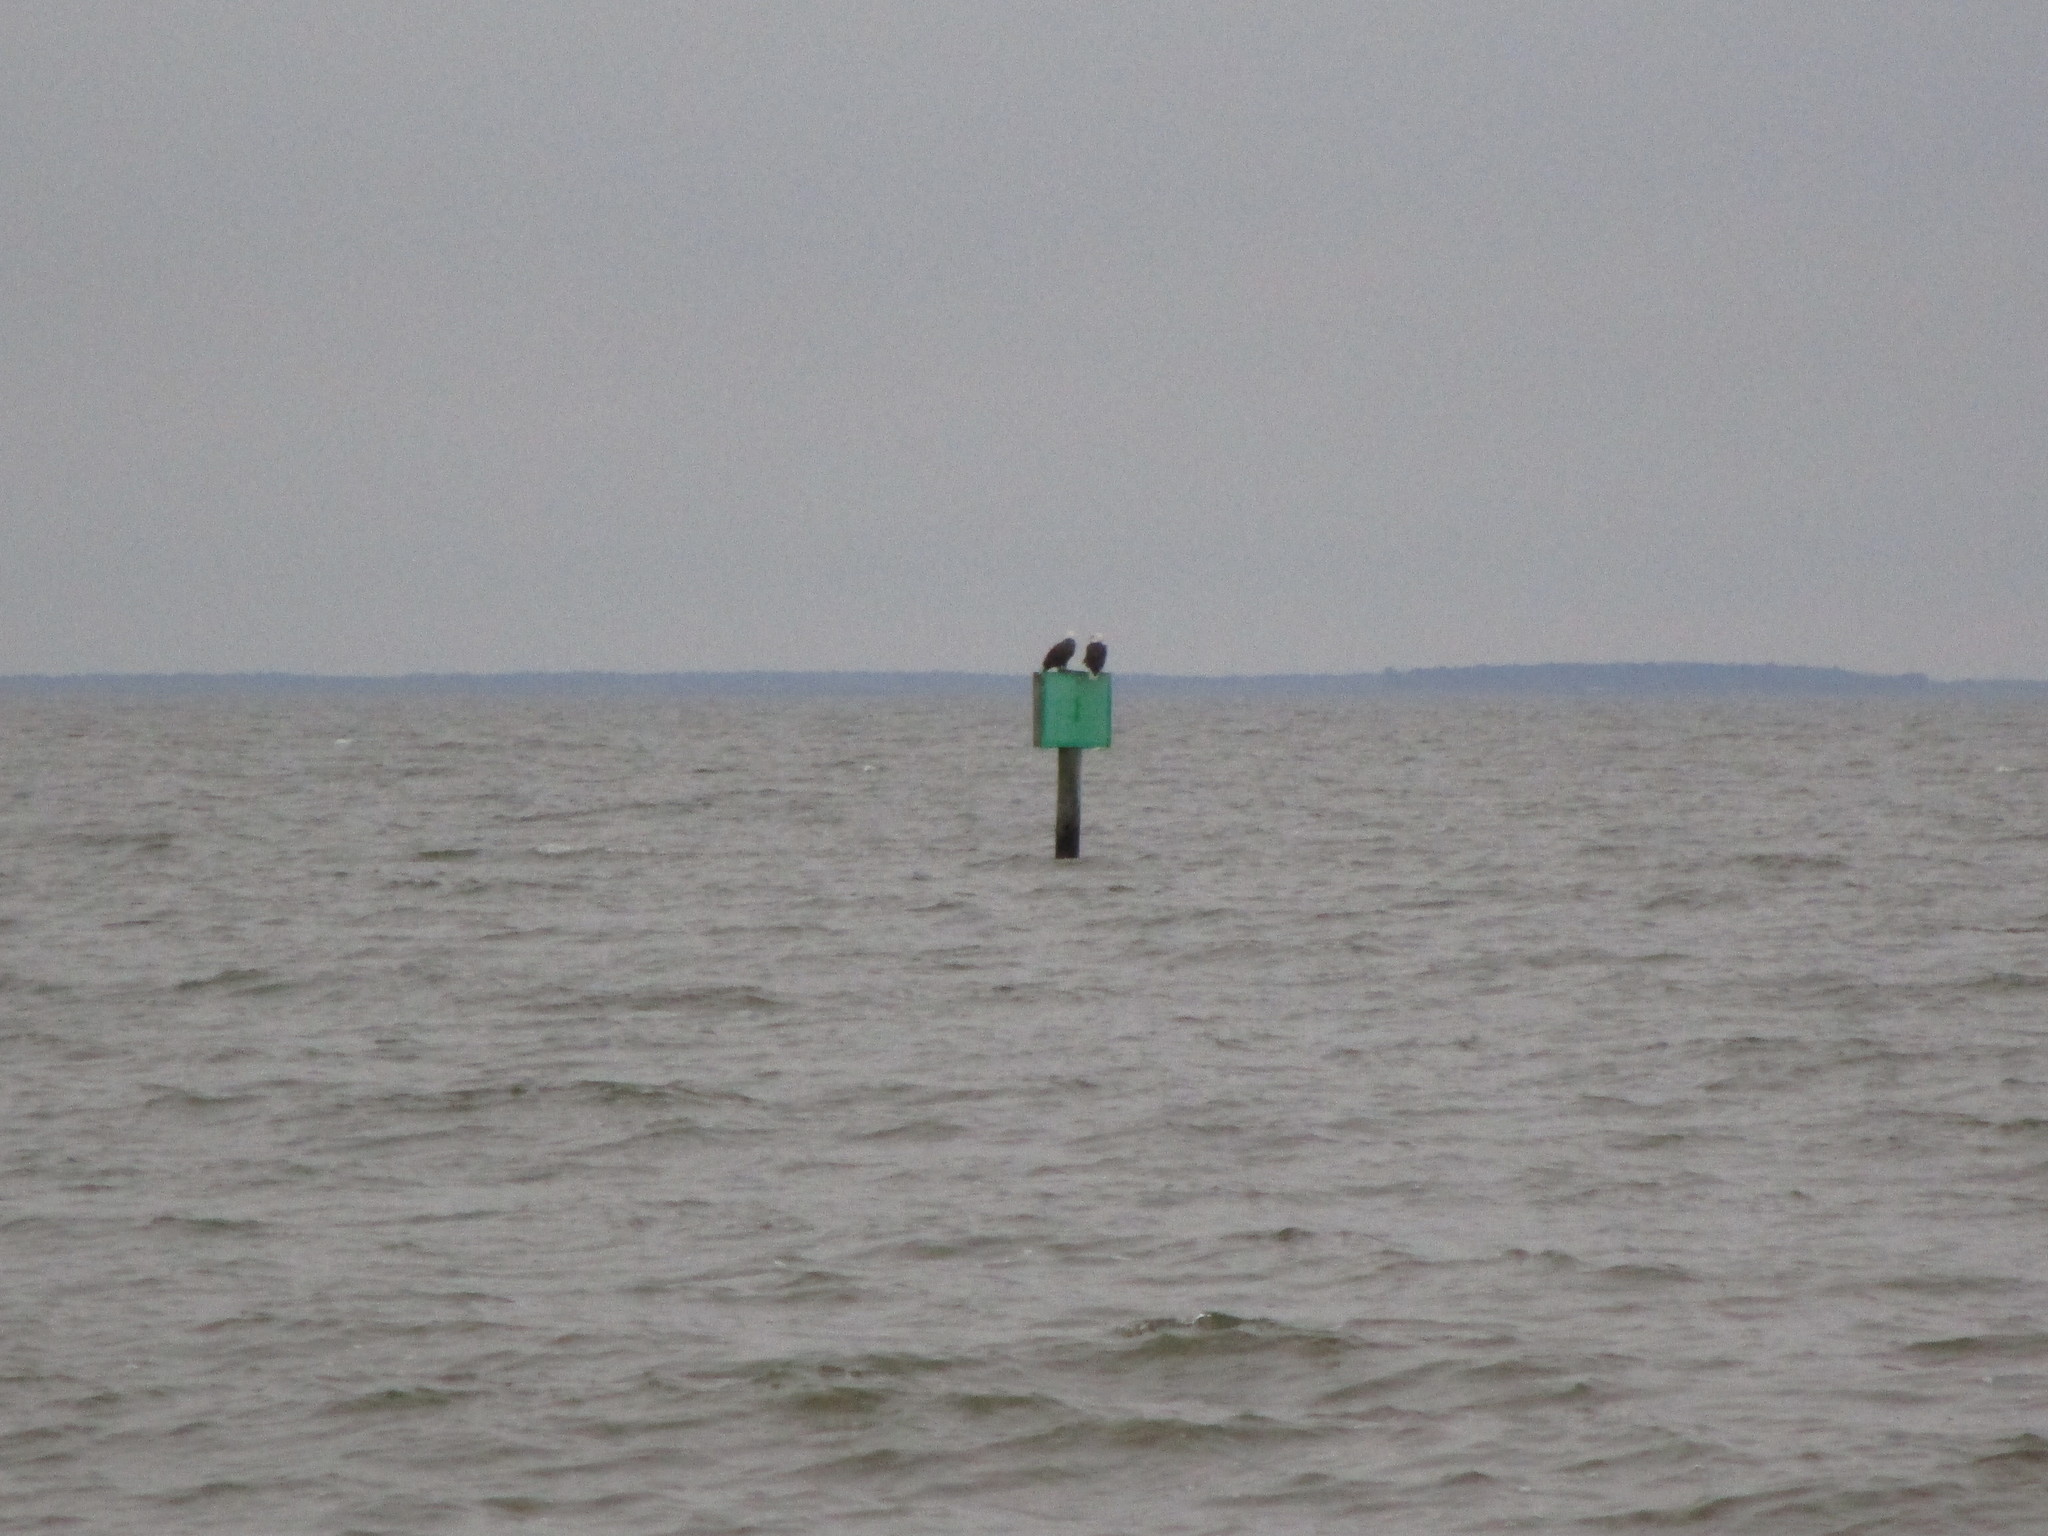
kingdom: Animalia
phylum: Chordata
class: Aves
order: Accipitriformes
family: Accipitridae
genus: Haliaeetus
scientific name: Haliaeetus leucocephalus
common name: Bald eagle
